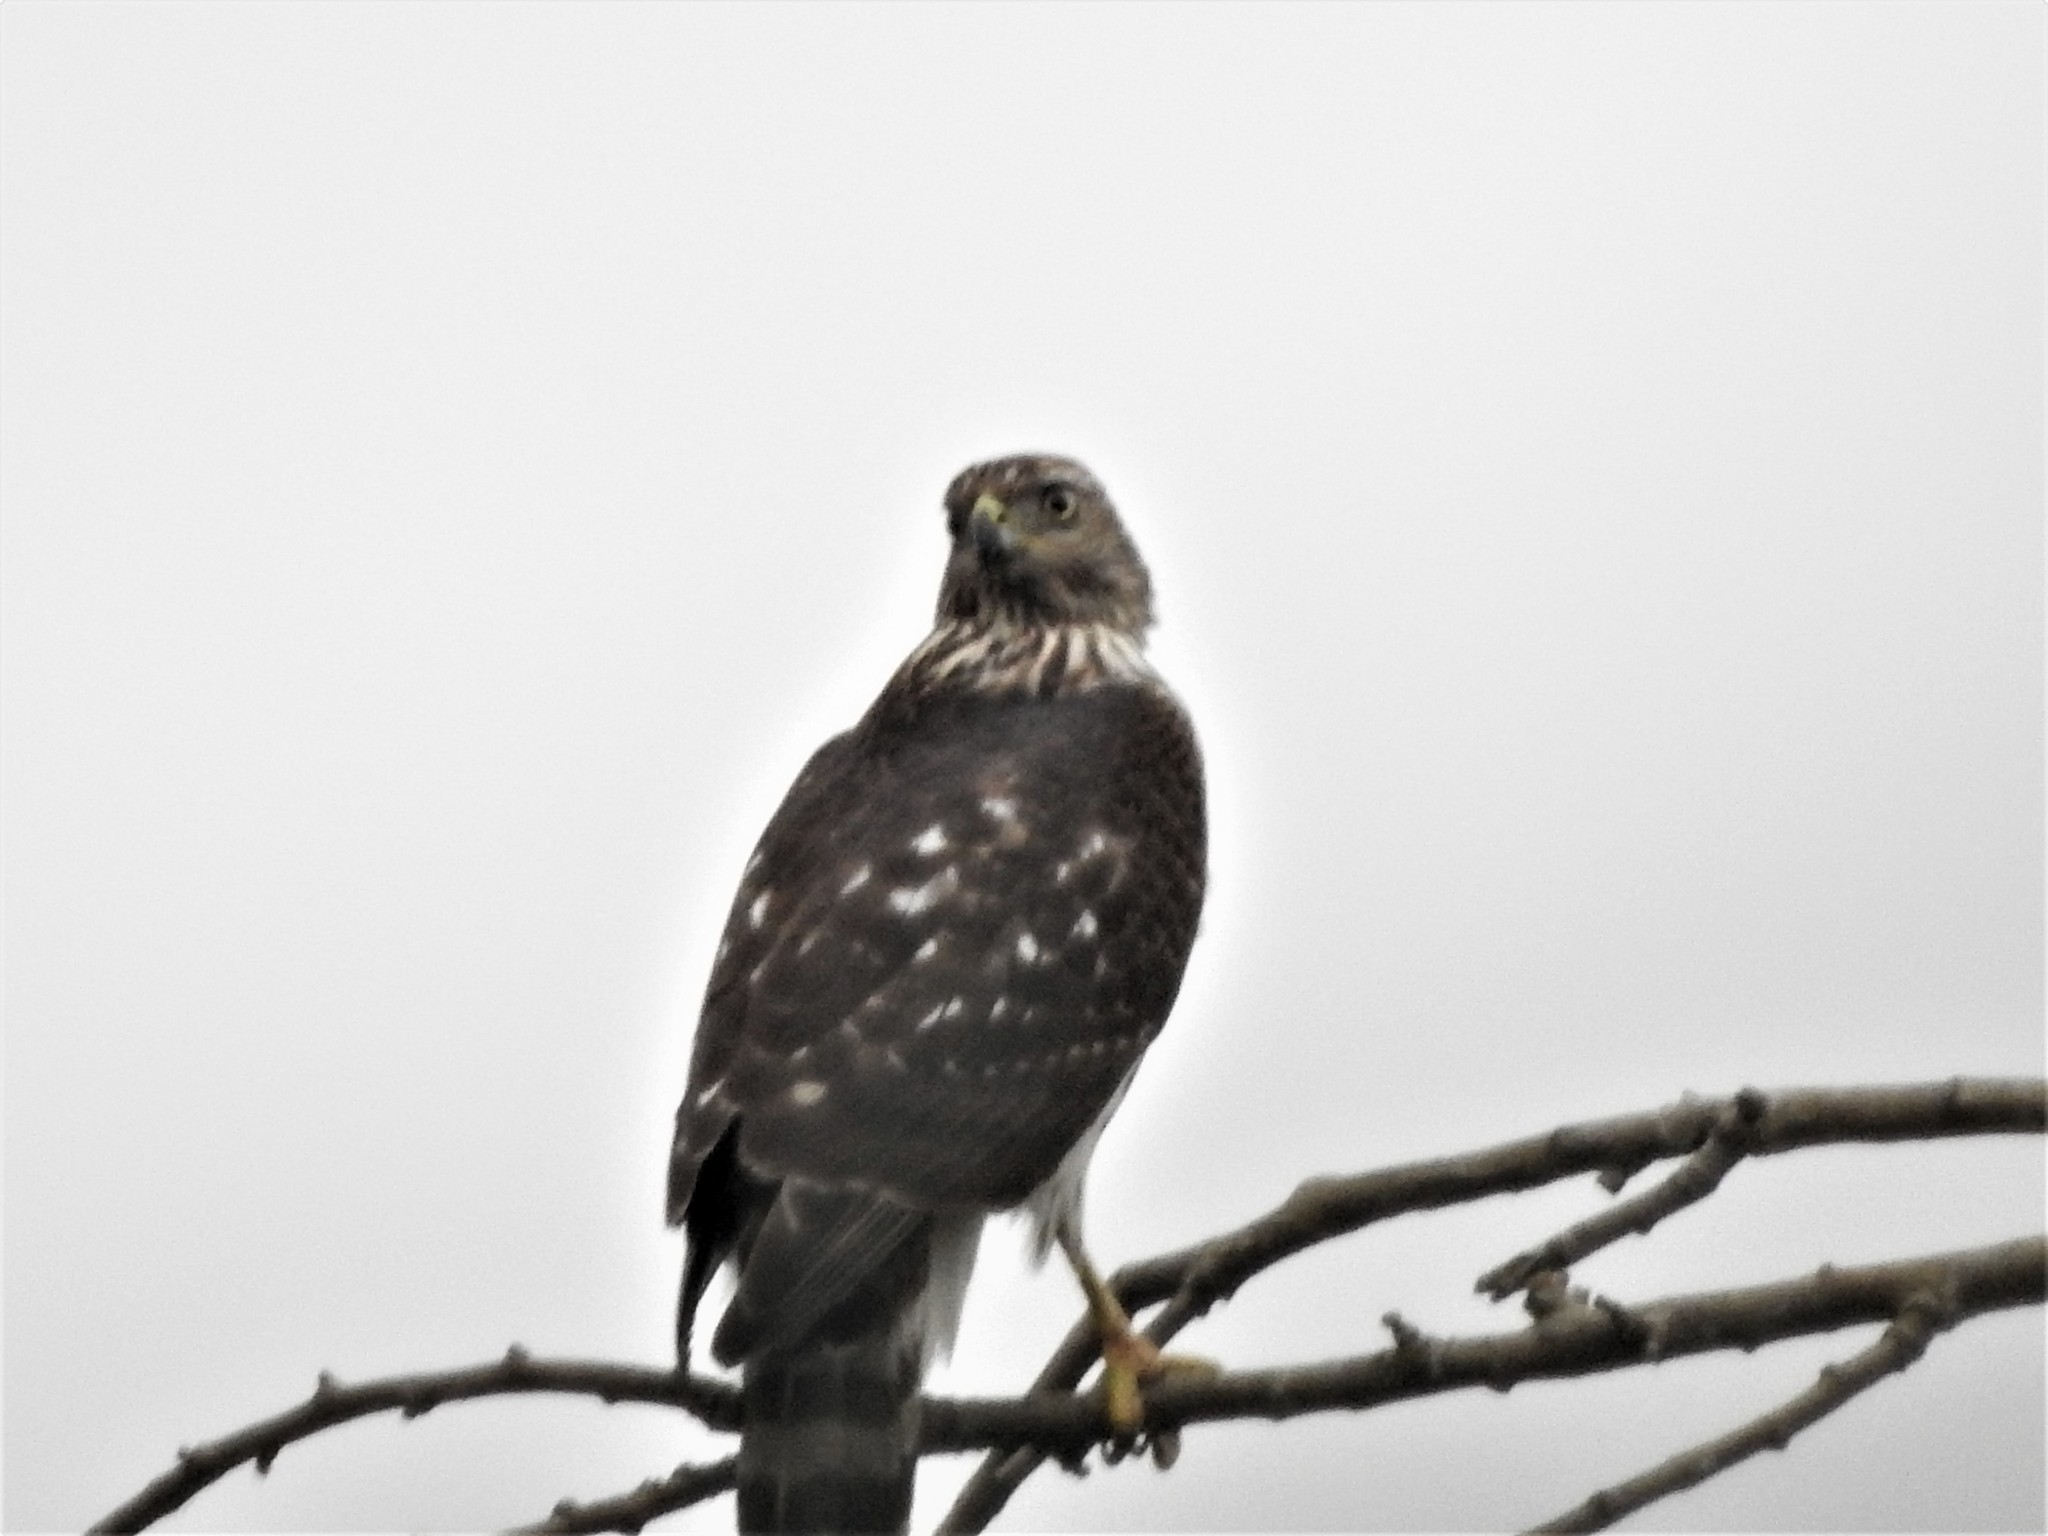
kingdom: Animalia
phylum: Chordata
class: Aves
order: Accipitriformes
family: Accipitridae
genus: Accipiter
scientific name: Accipiter cooperii
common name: Cooper's hawk
